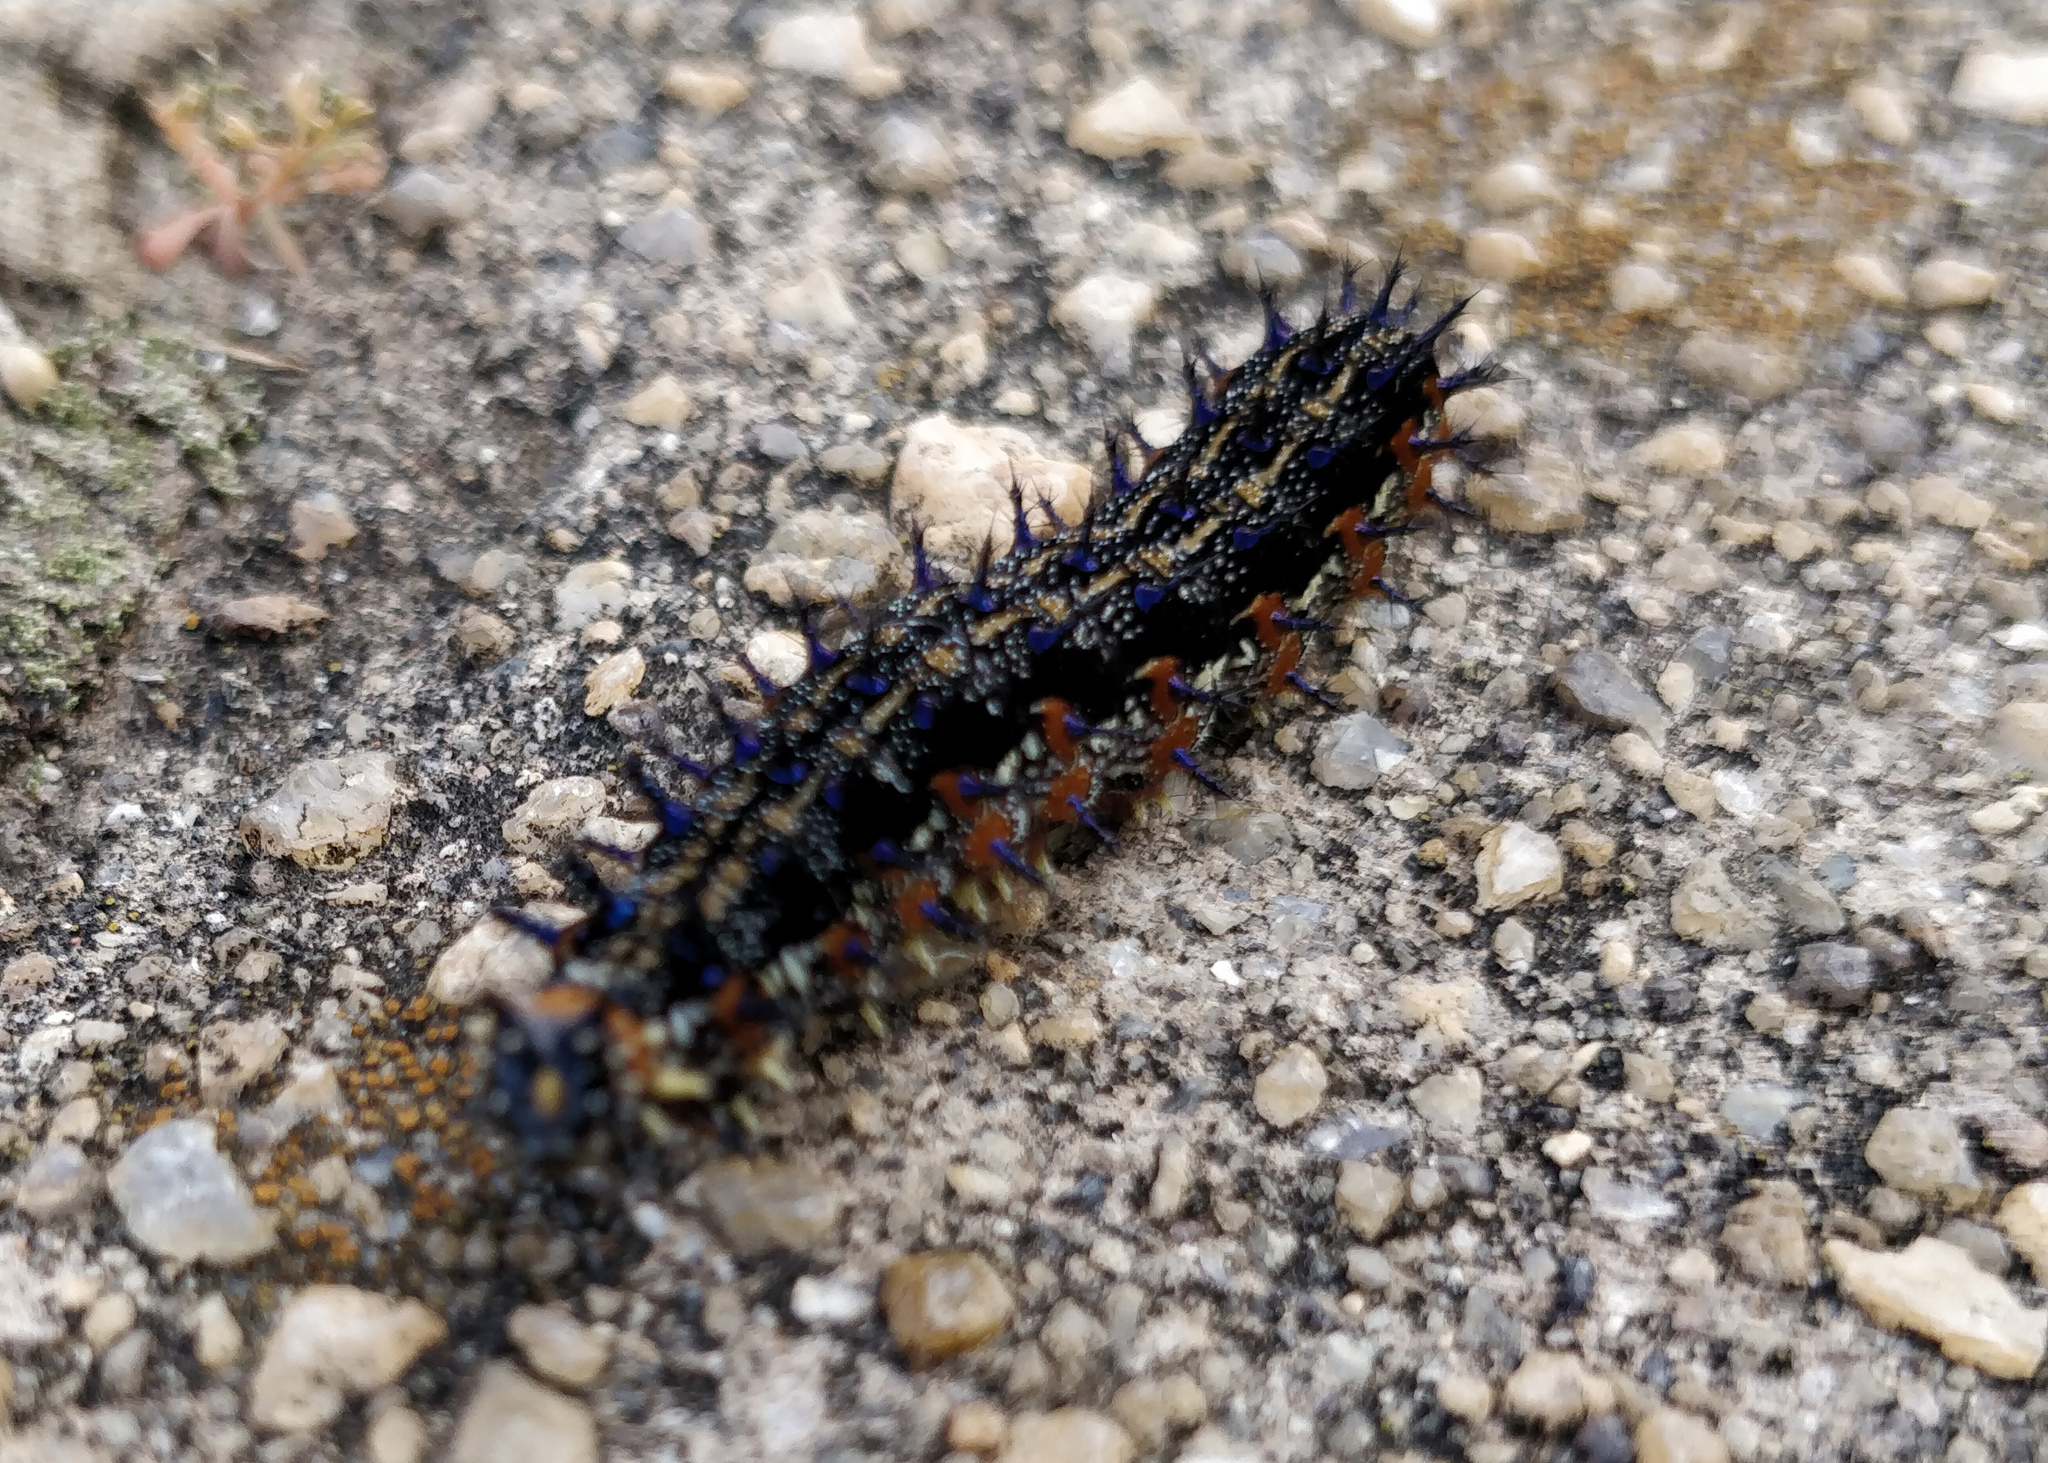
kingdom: Animalia
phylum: Arthropoda
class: Insecta
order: Lepidoptera
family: Nymphalidae
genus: Junonia
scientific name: Junonia coenia
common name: Common buckeye
